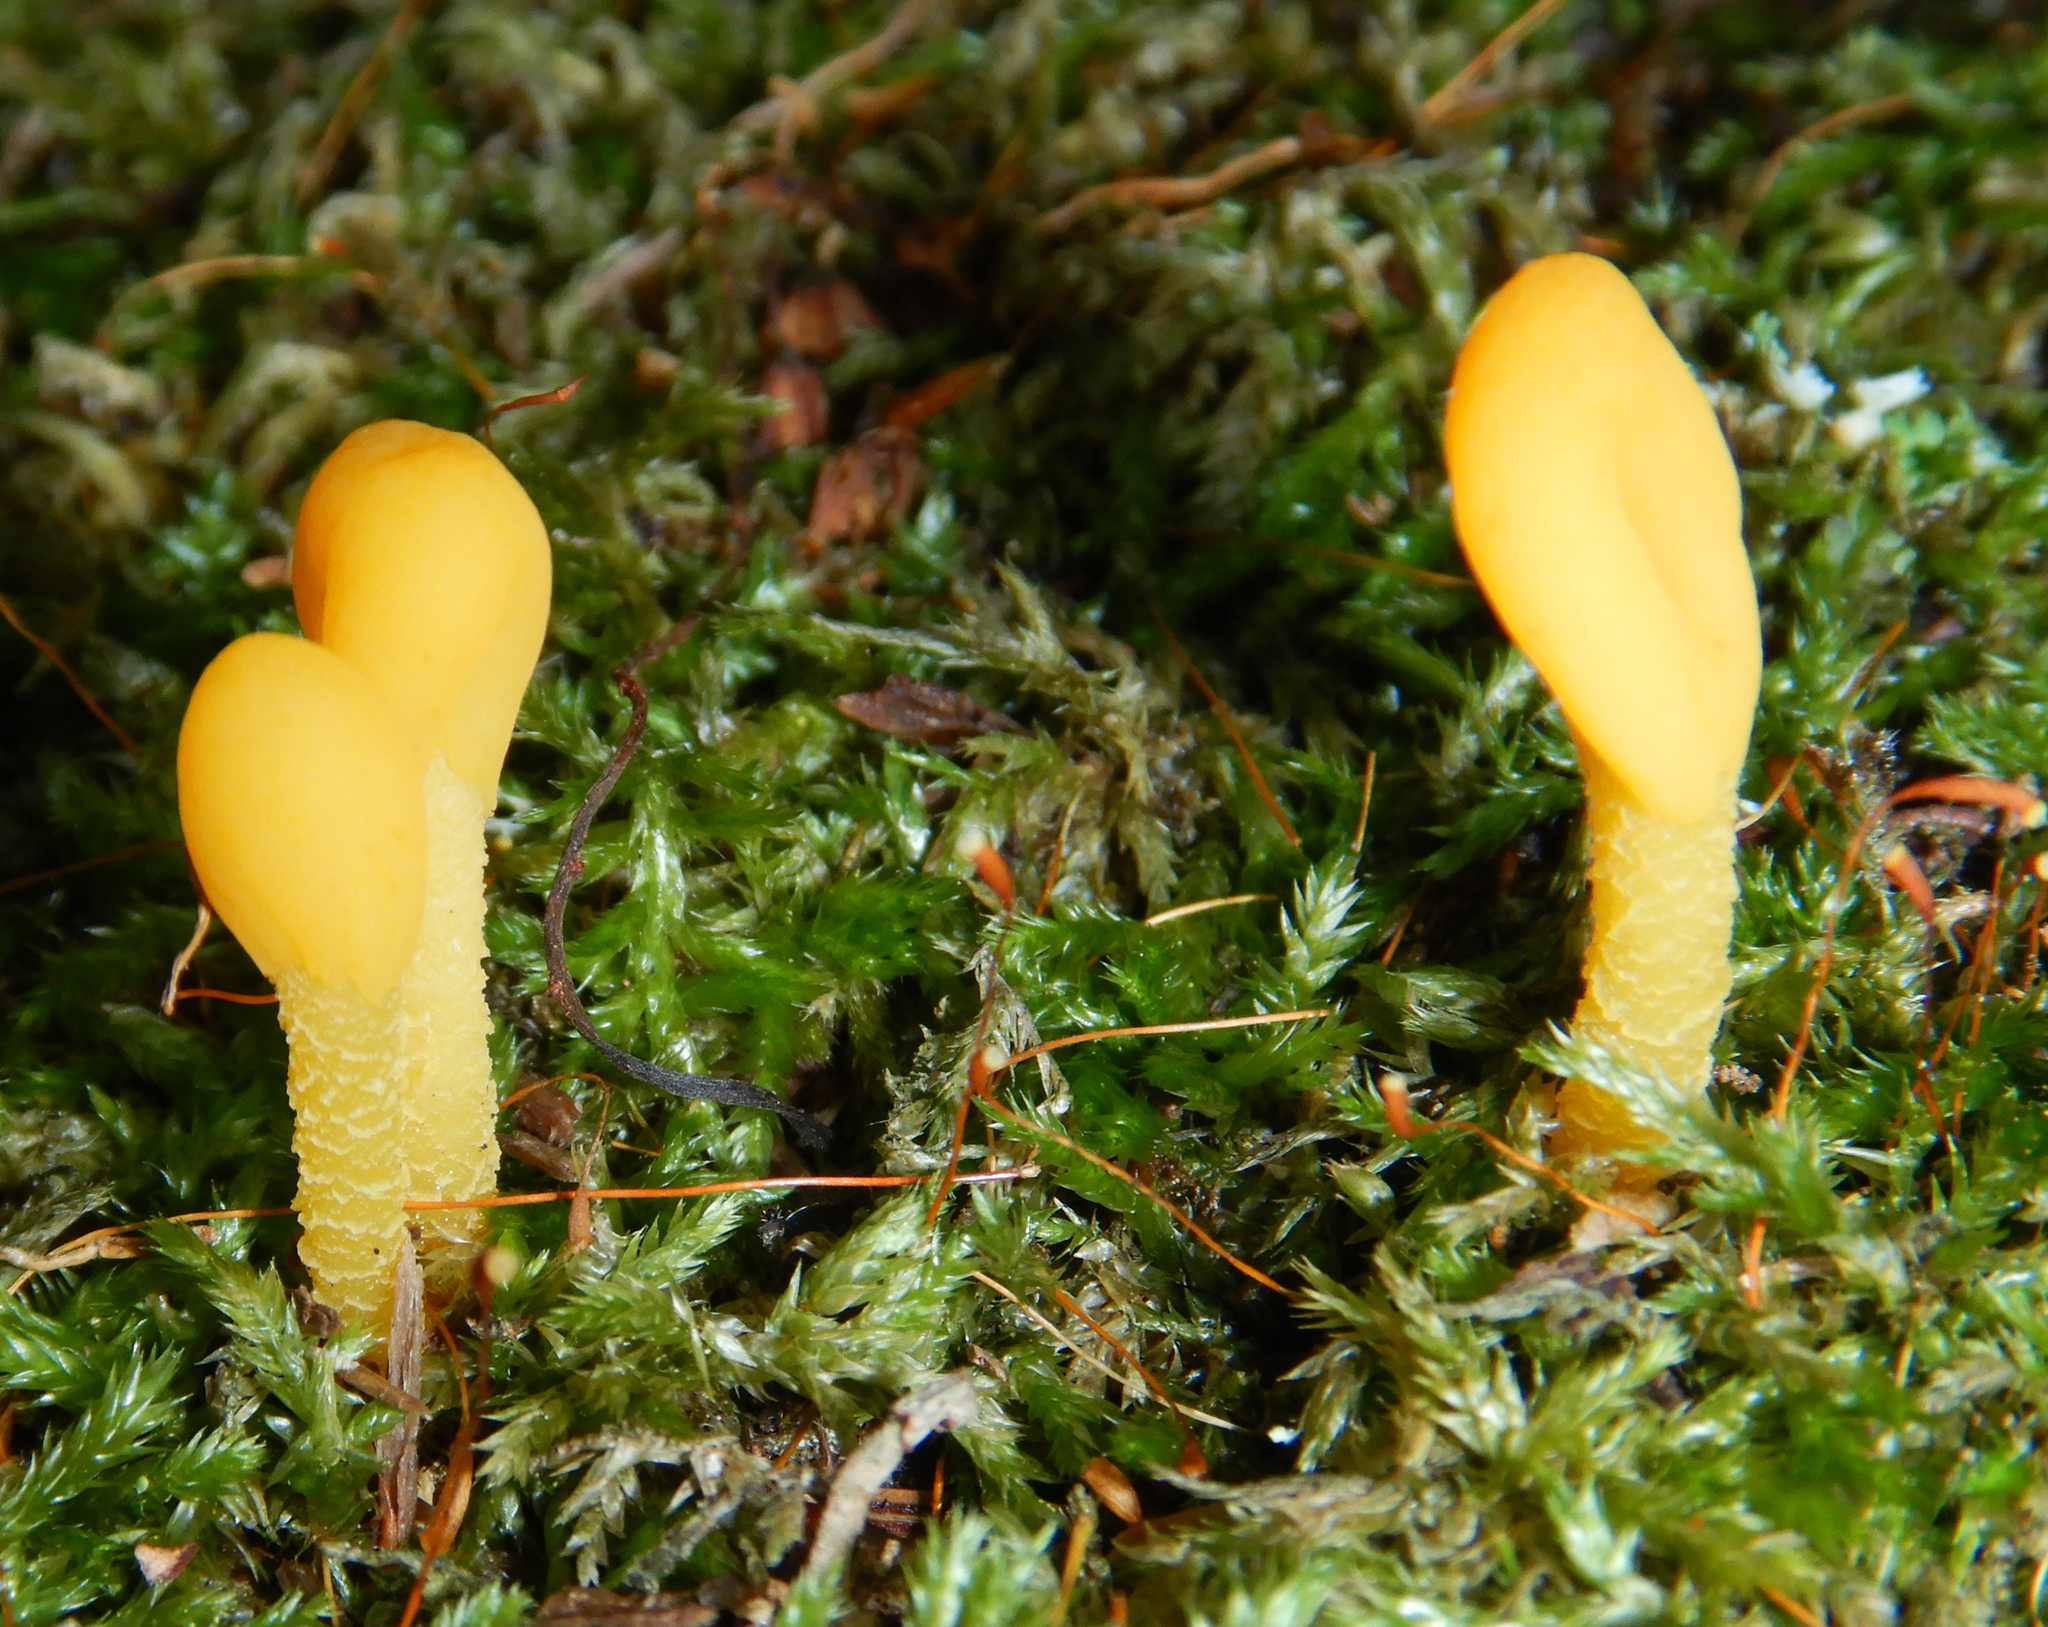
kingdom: Fungi
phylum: Ascomycota
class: Leotiomycetes
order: Leotiales
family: Leotiaceae
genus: Microglossum
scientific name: Microglossum rufum
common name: Orange earthtongue
